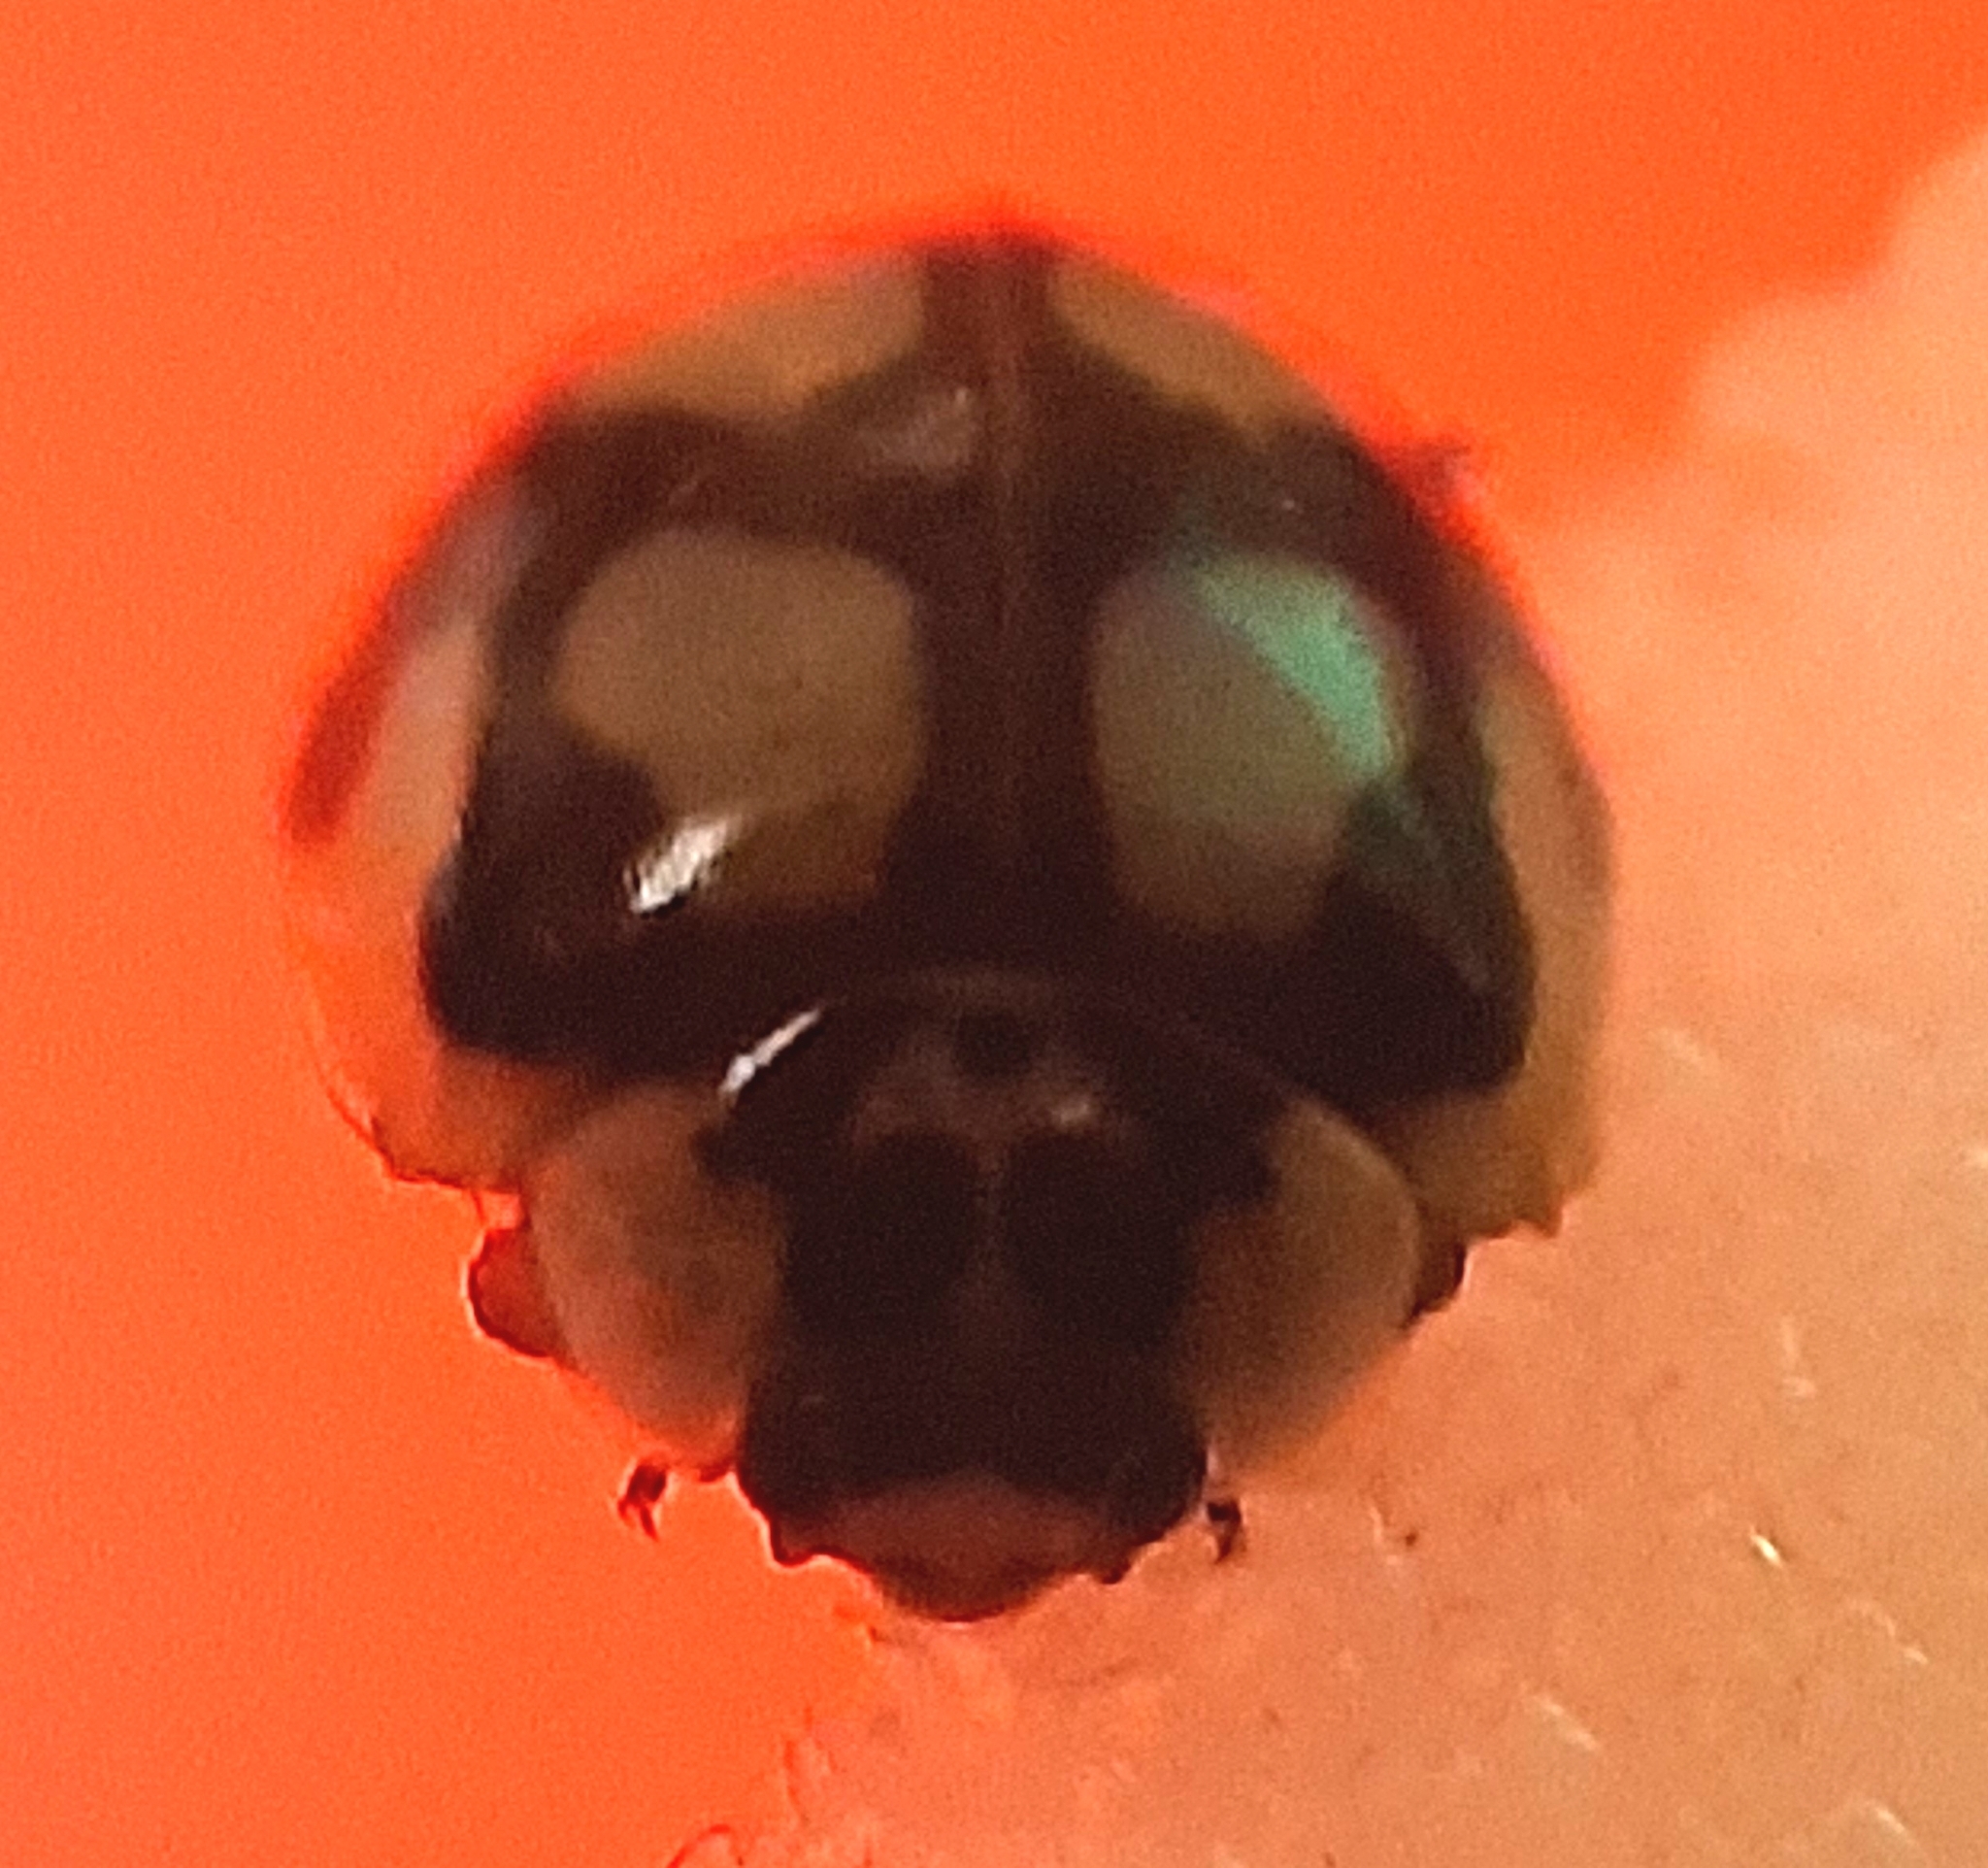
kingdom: Animalia
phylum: Arthropoda
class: Insecta
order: Coleoptera
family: Coccinellidae
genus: Adalia
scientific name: Adalia decempunctata
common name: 10-spot ladybird
